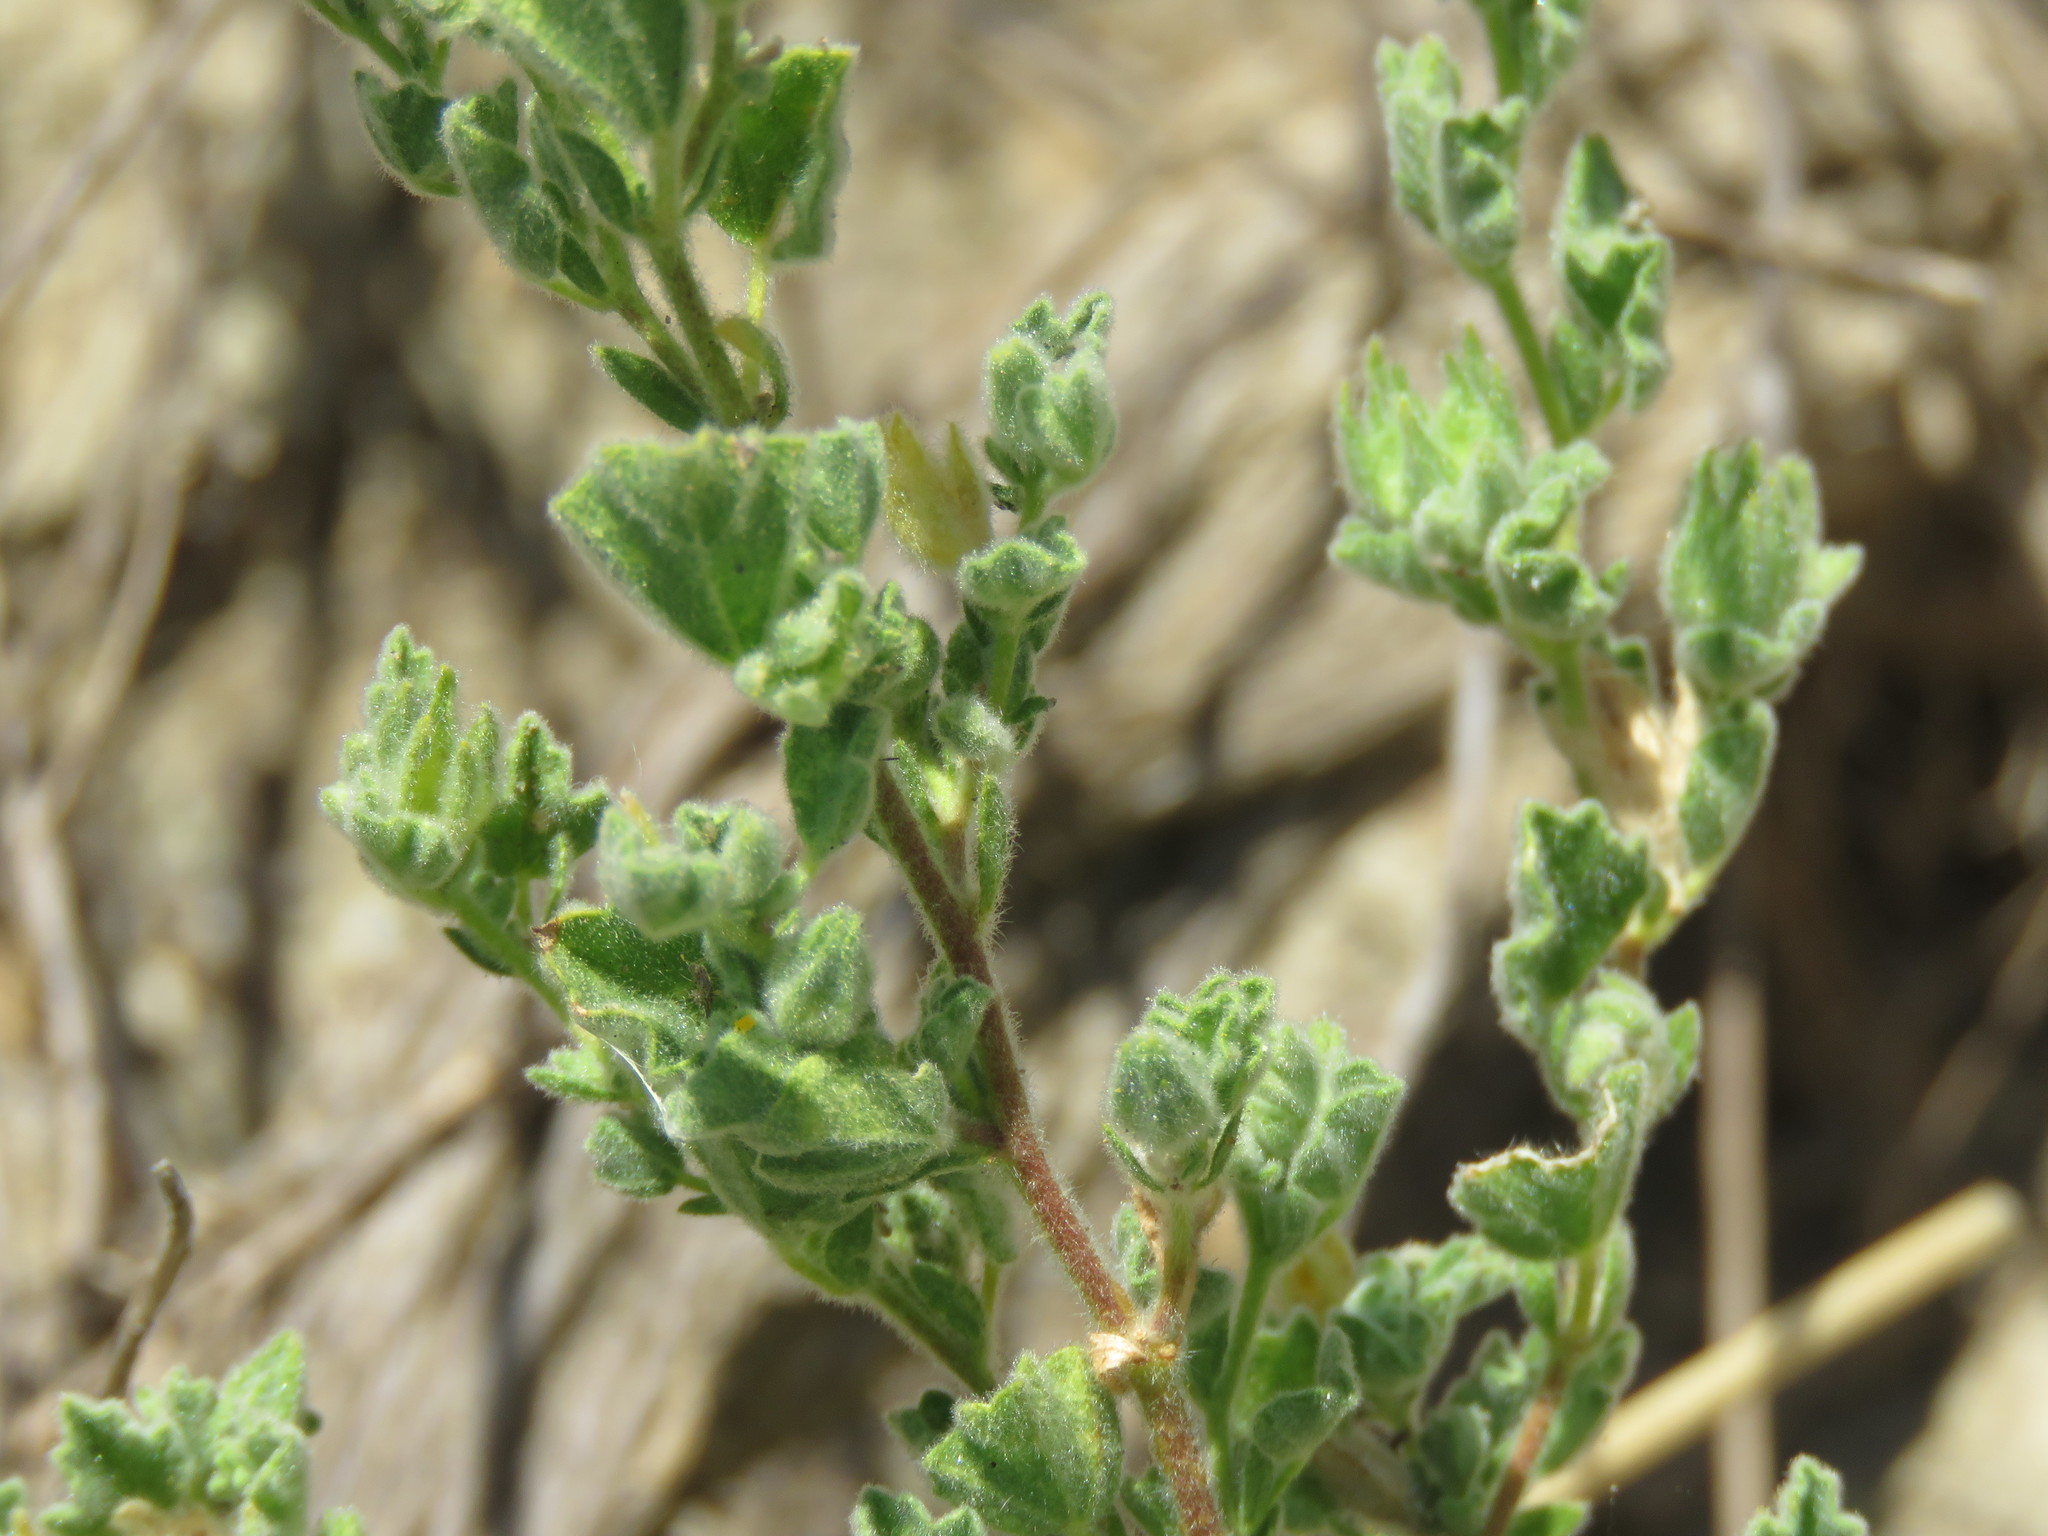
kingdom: Plantae
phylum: Tracheophyta
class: Magnoliopsida
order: Malvales
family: Malvaceae
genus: Billieturnera
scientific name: Billieturnera helleri
